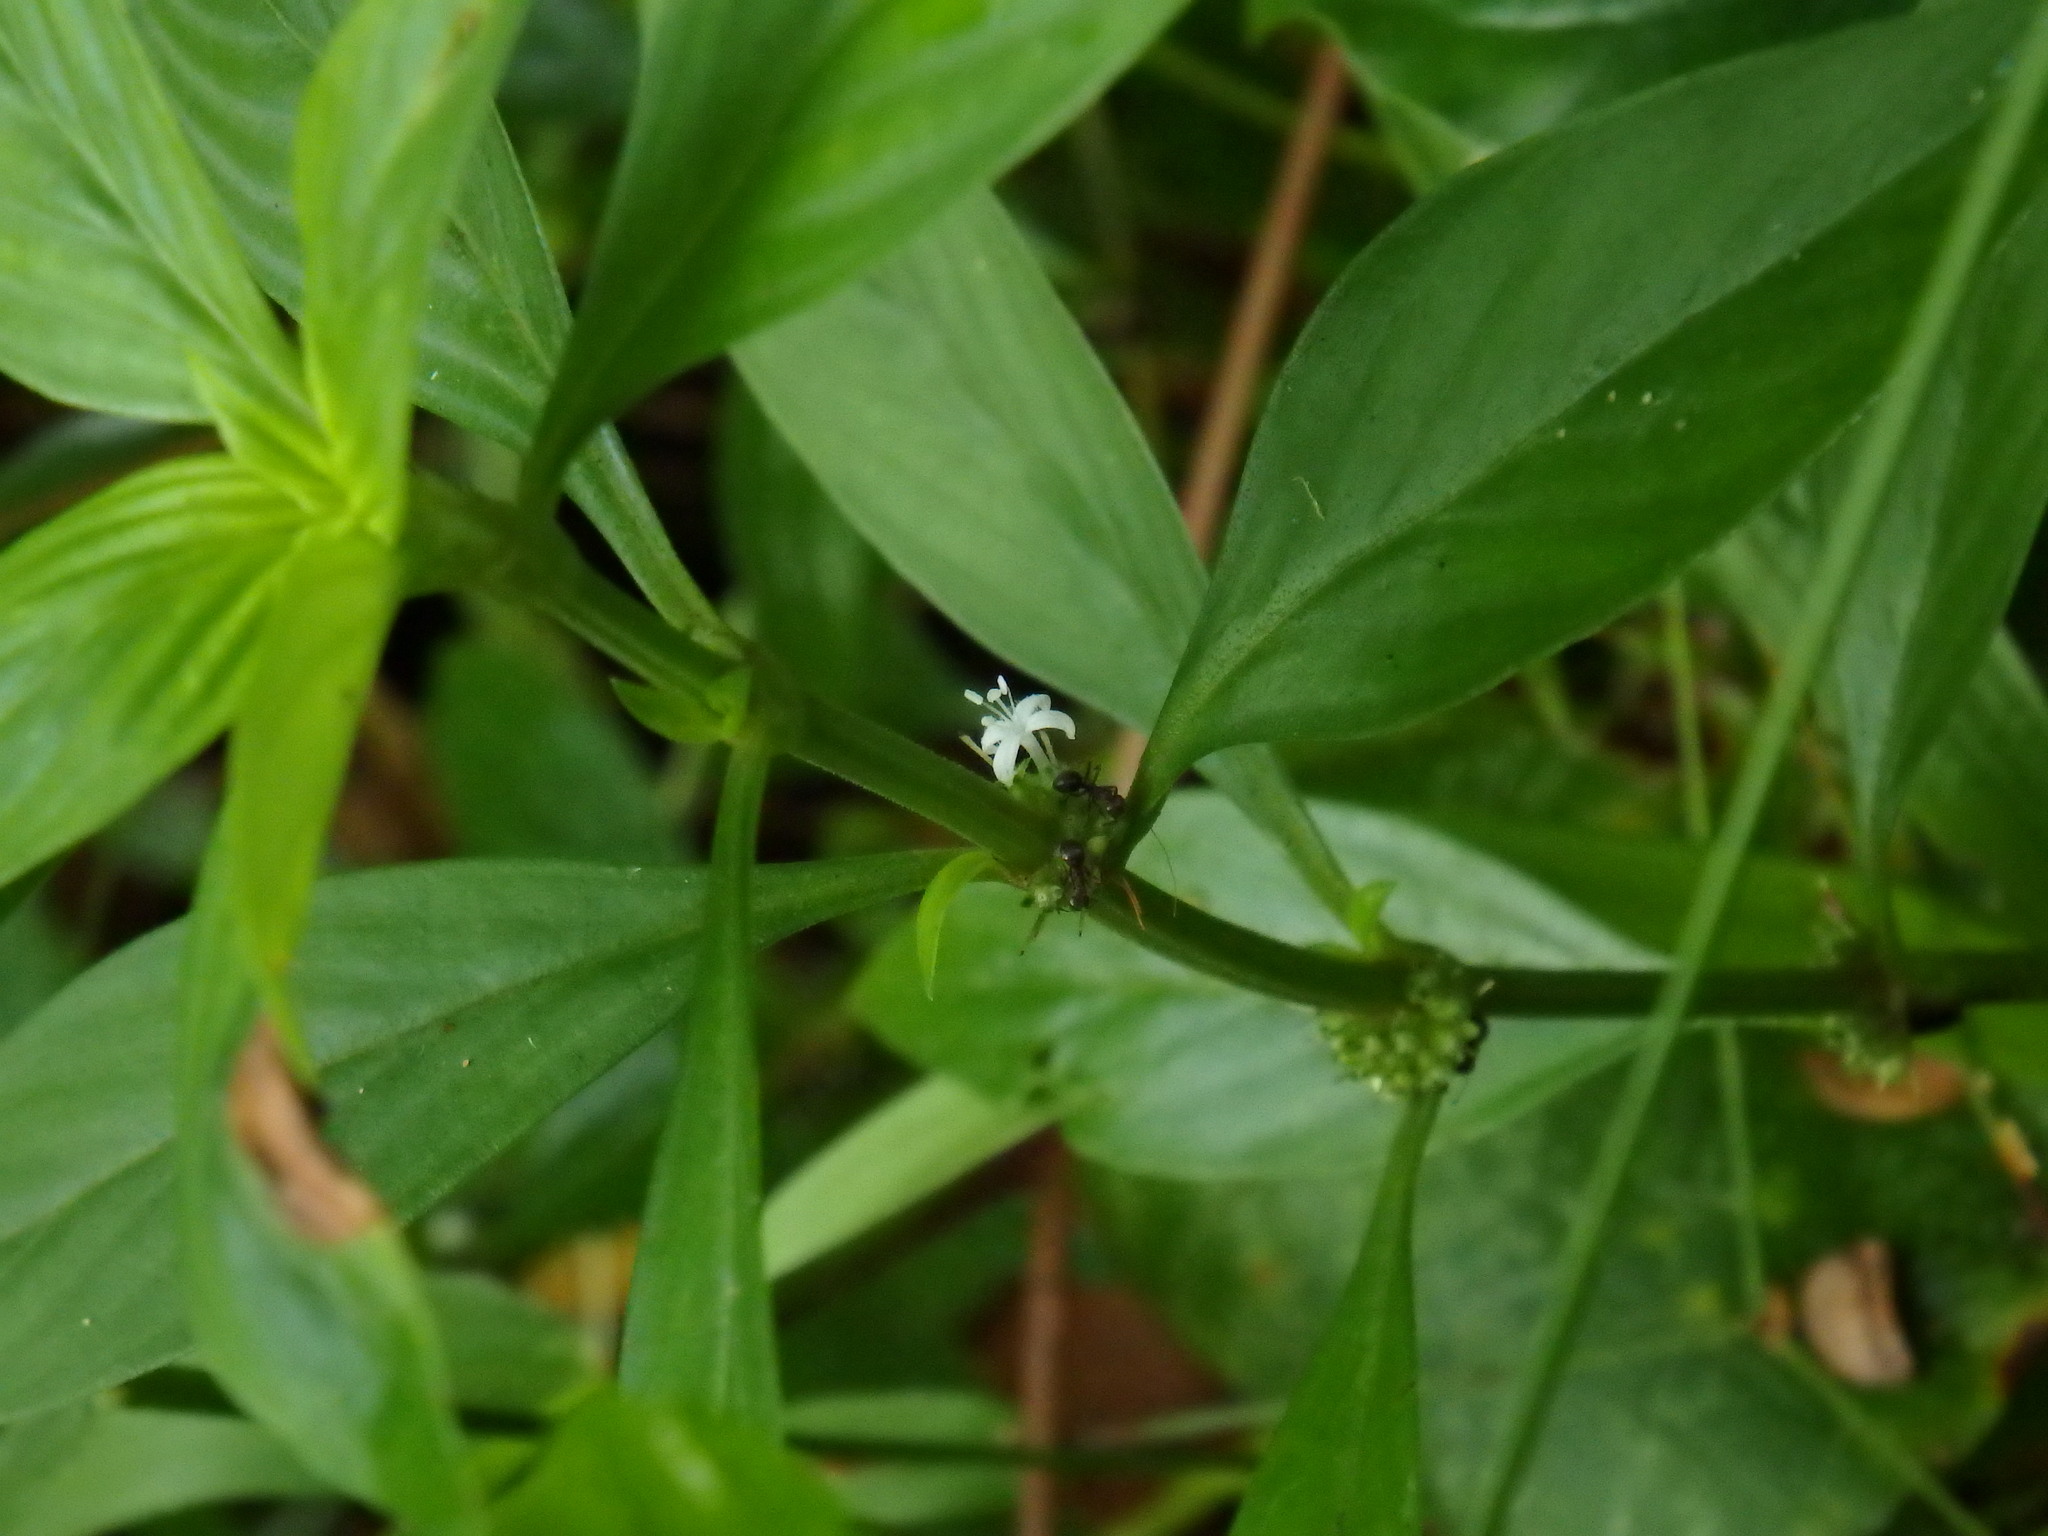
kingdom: Plantae
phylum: Tracheophyta
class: Magnoliopsida
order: Gentianales
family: Rubiaceae
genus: Exallage
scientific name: Exallage auricularia
